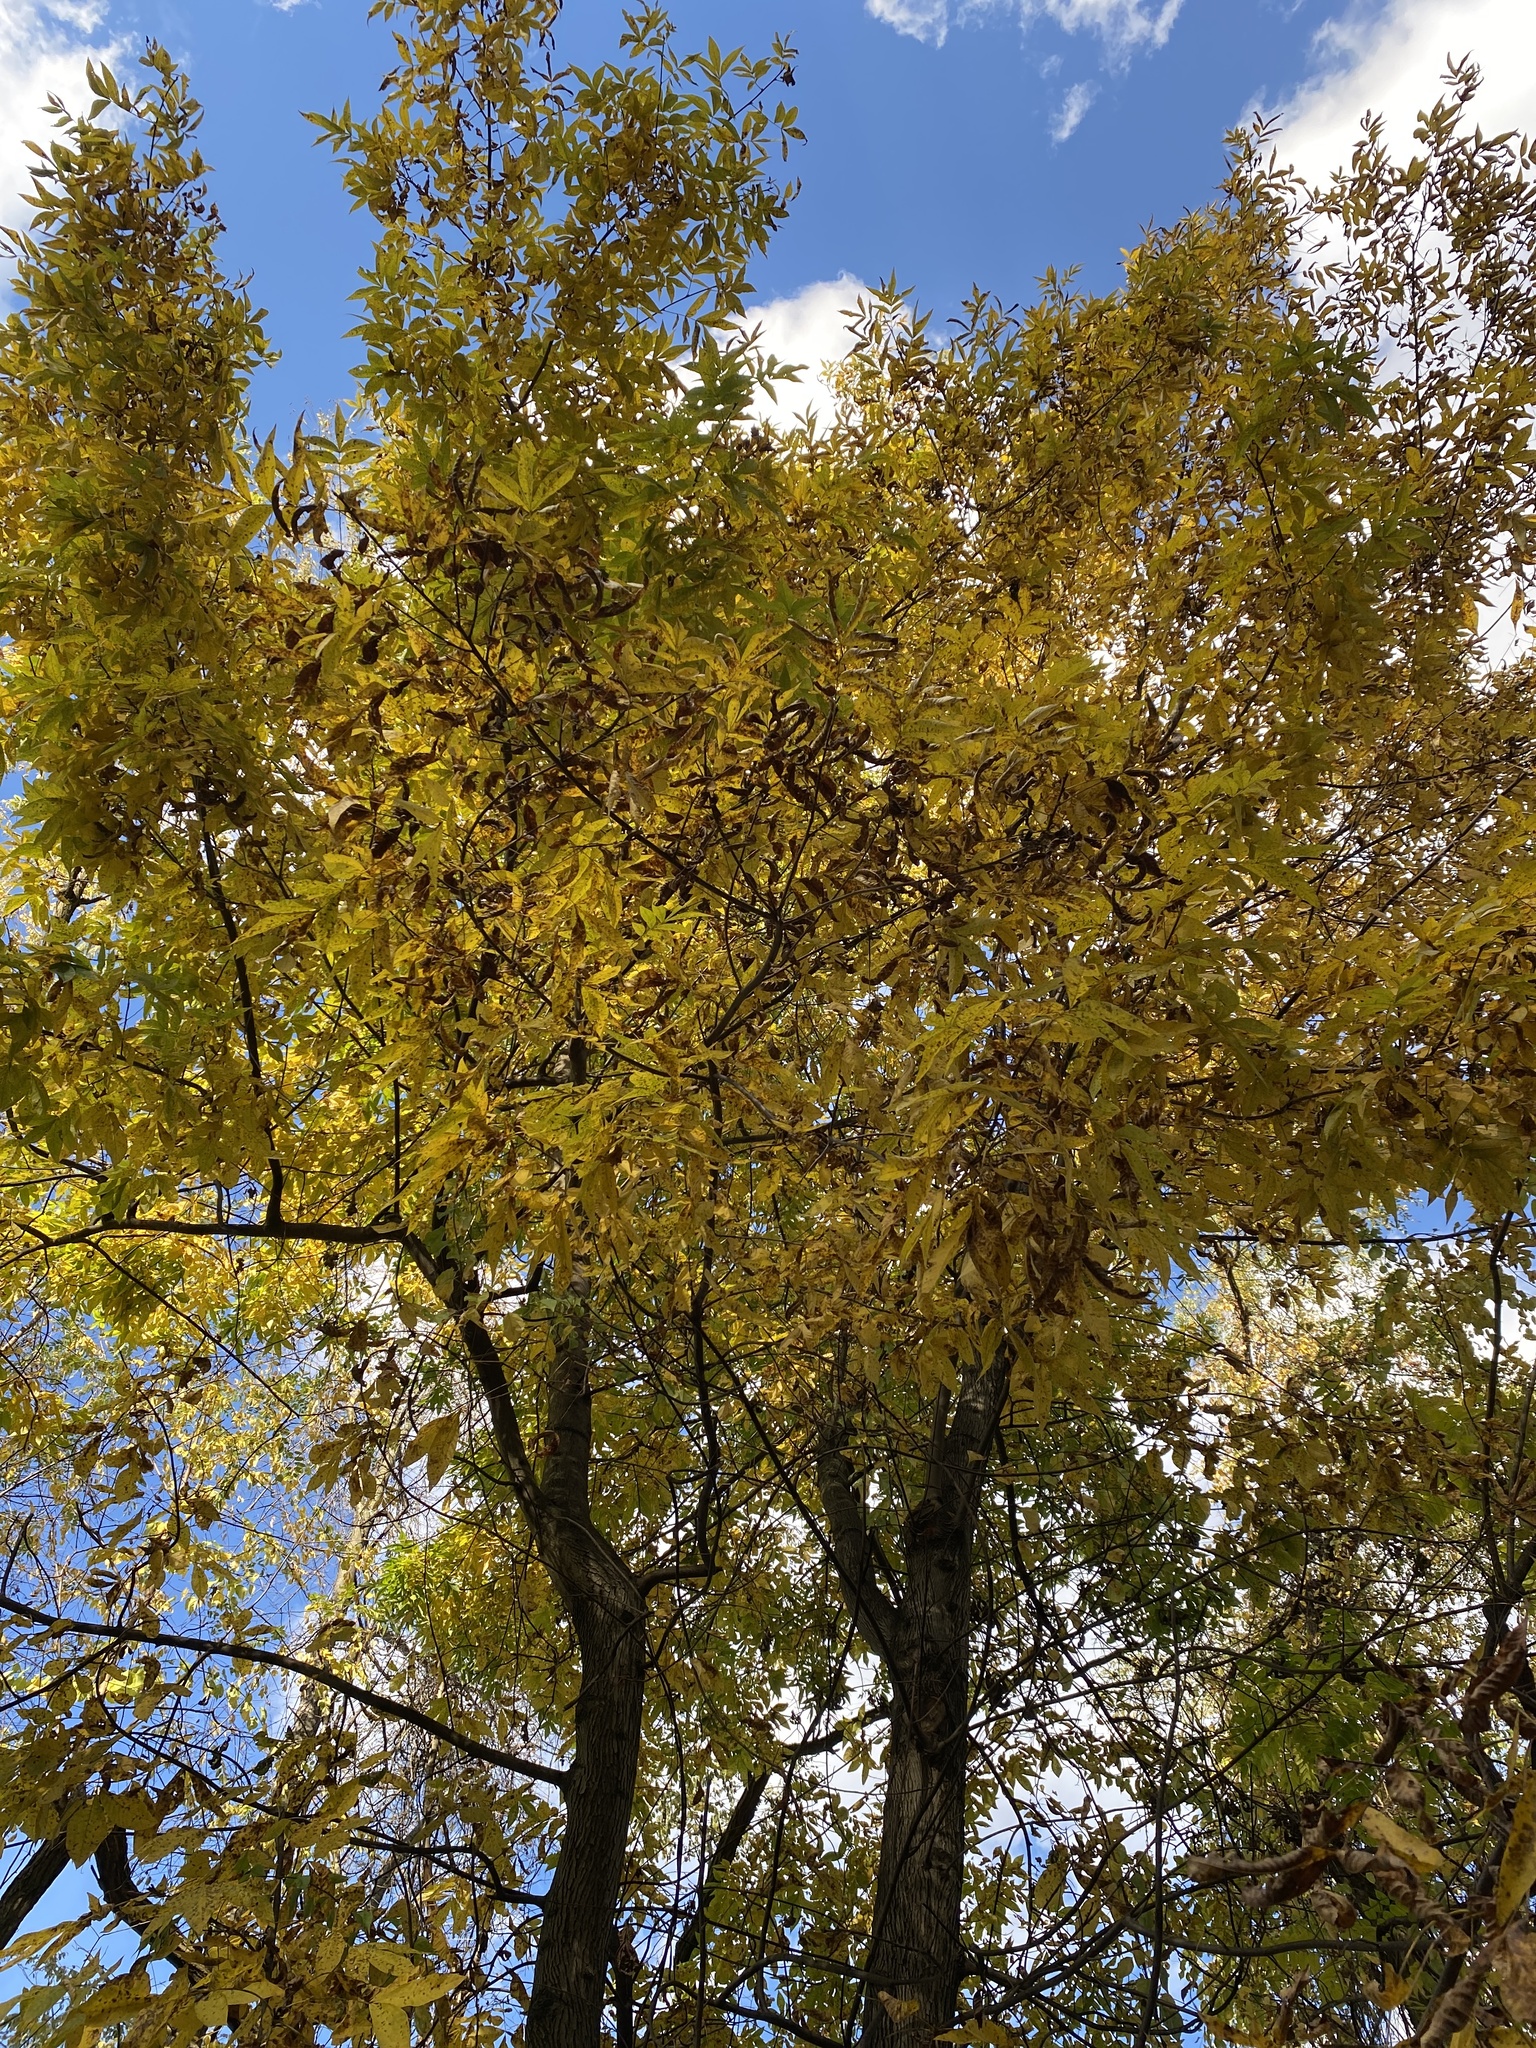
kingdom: Plantae
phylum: Tracheophyta
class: Magnoliopsida
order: Fagales
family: Juglandaceae
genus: Carya
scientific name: Carya cordiformis
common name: Bitternut hickory
